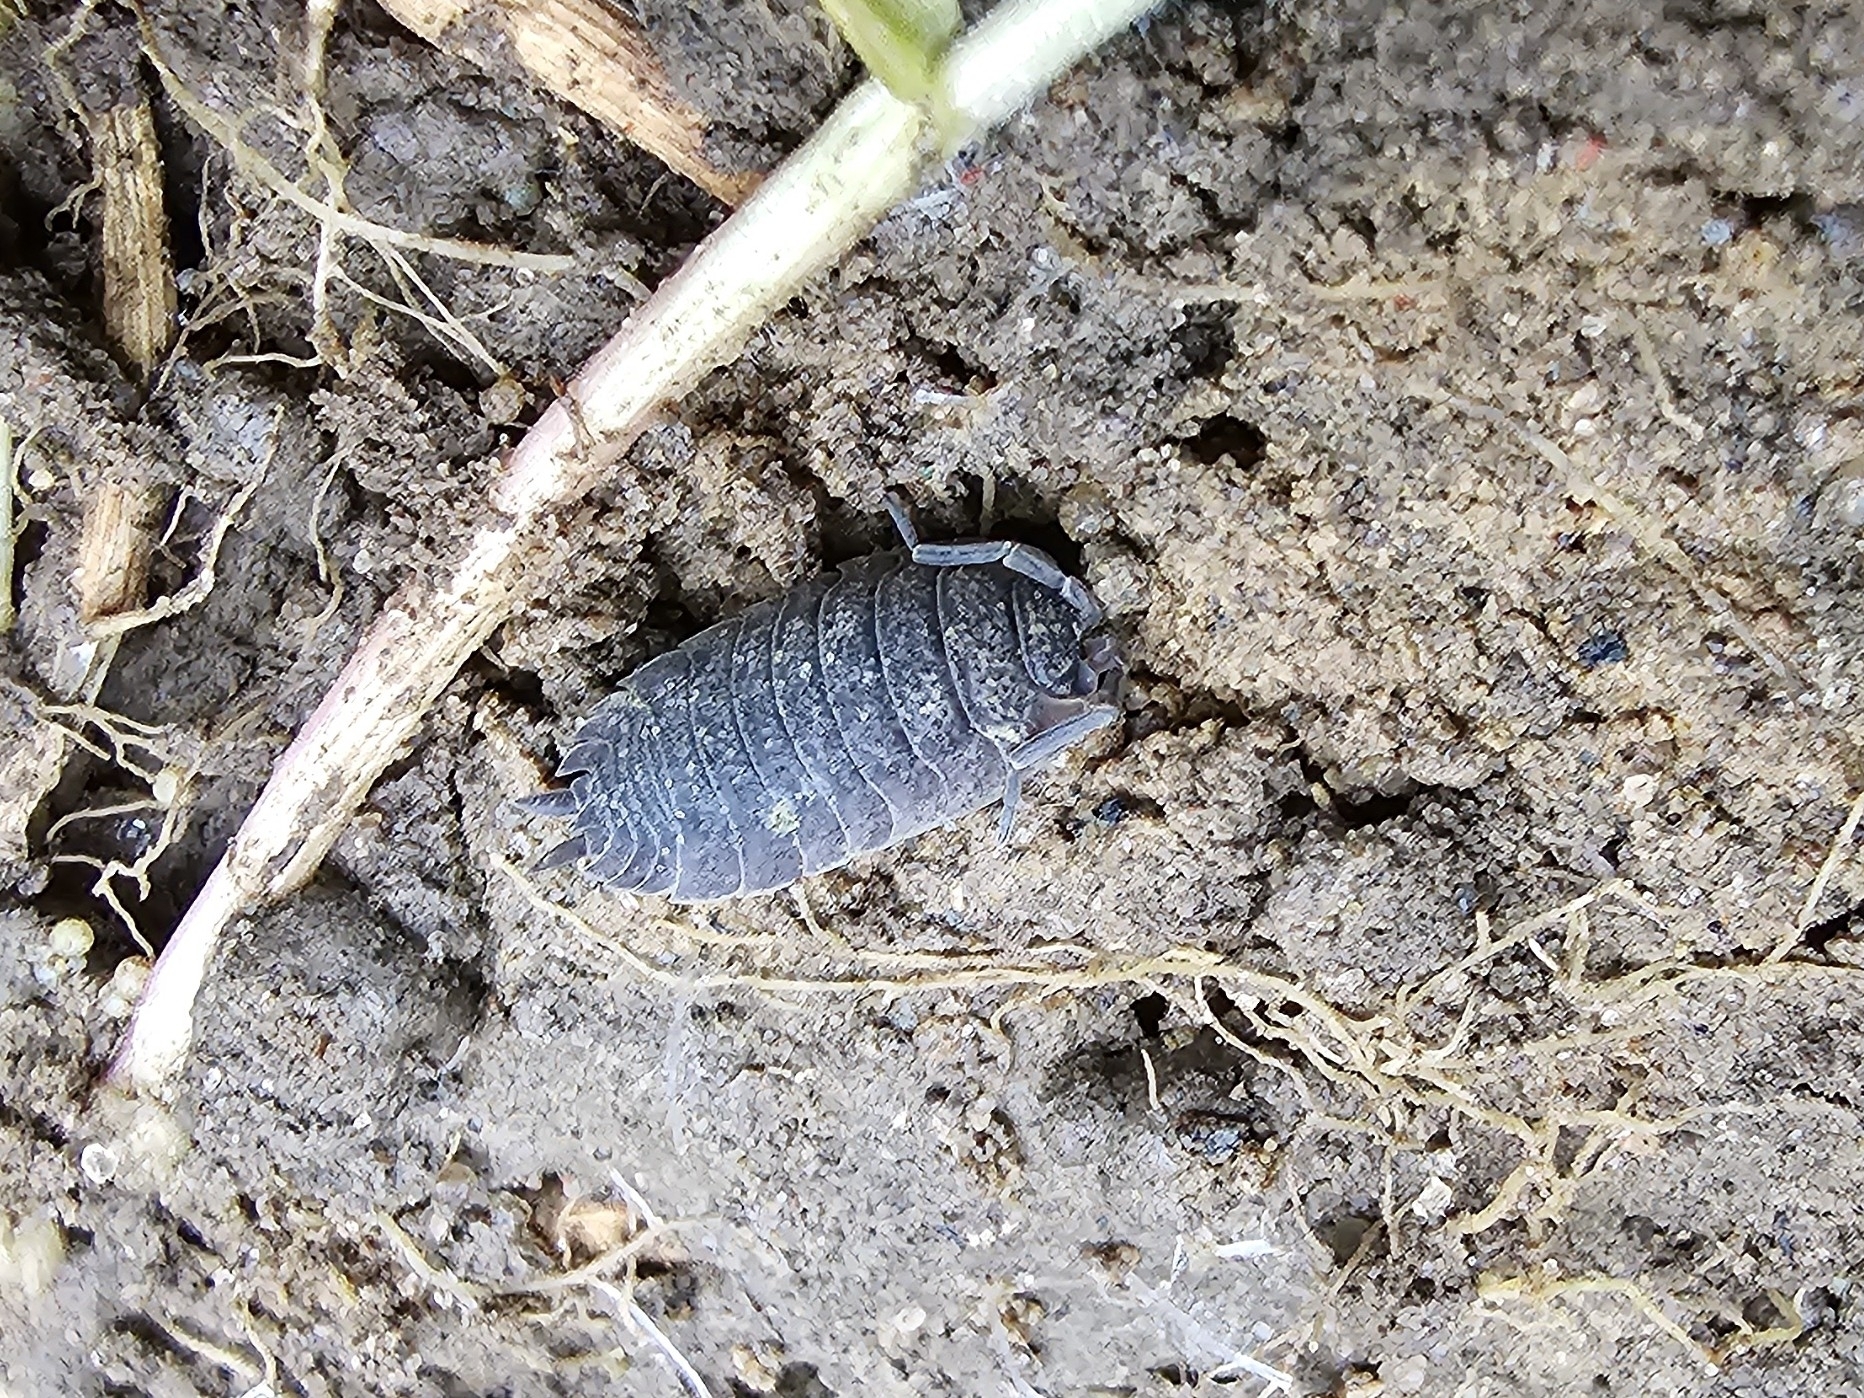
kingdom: Animalia
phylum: Arthropoda
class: Malacostraca
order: Isopoda
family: Porcellionidae
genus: Porcellio
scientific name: Porcellio scaber
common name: Common rough woodlouse
